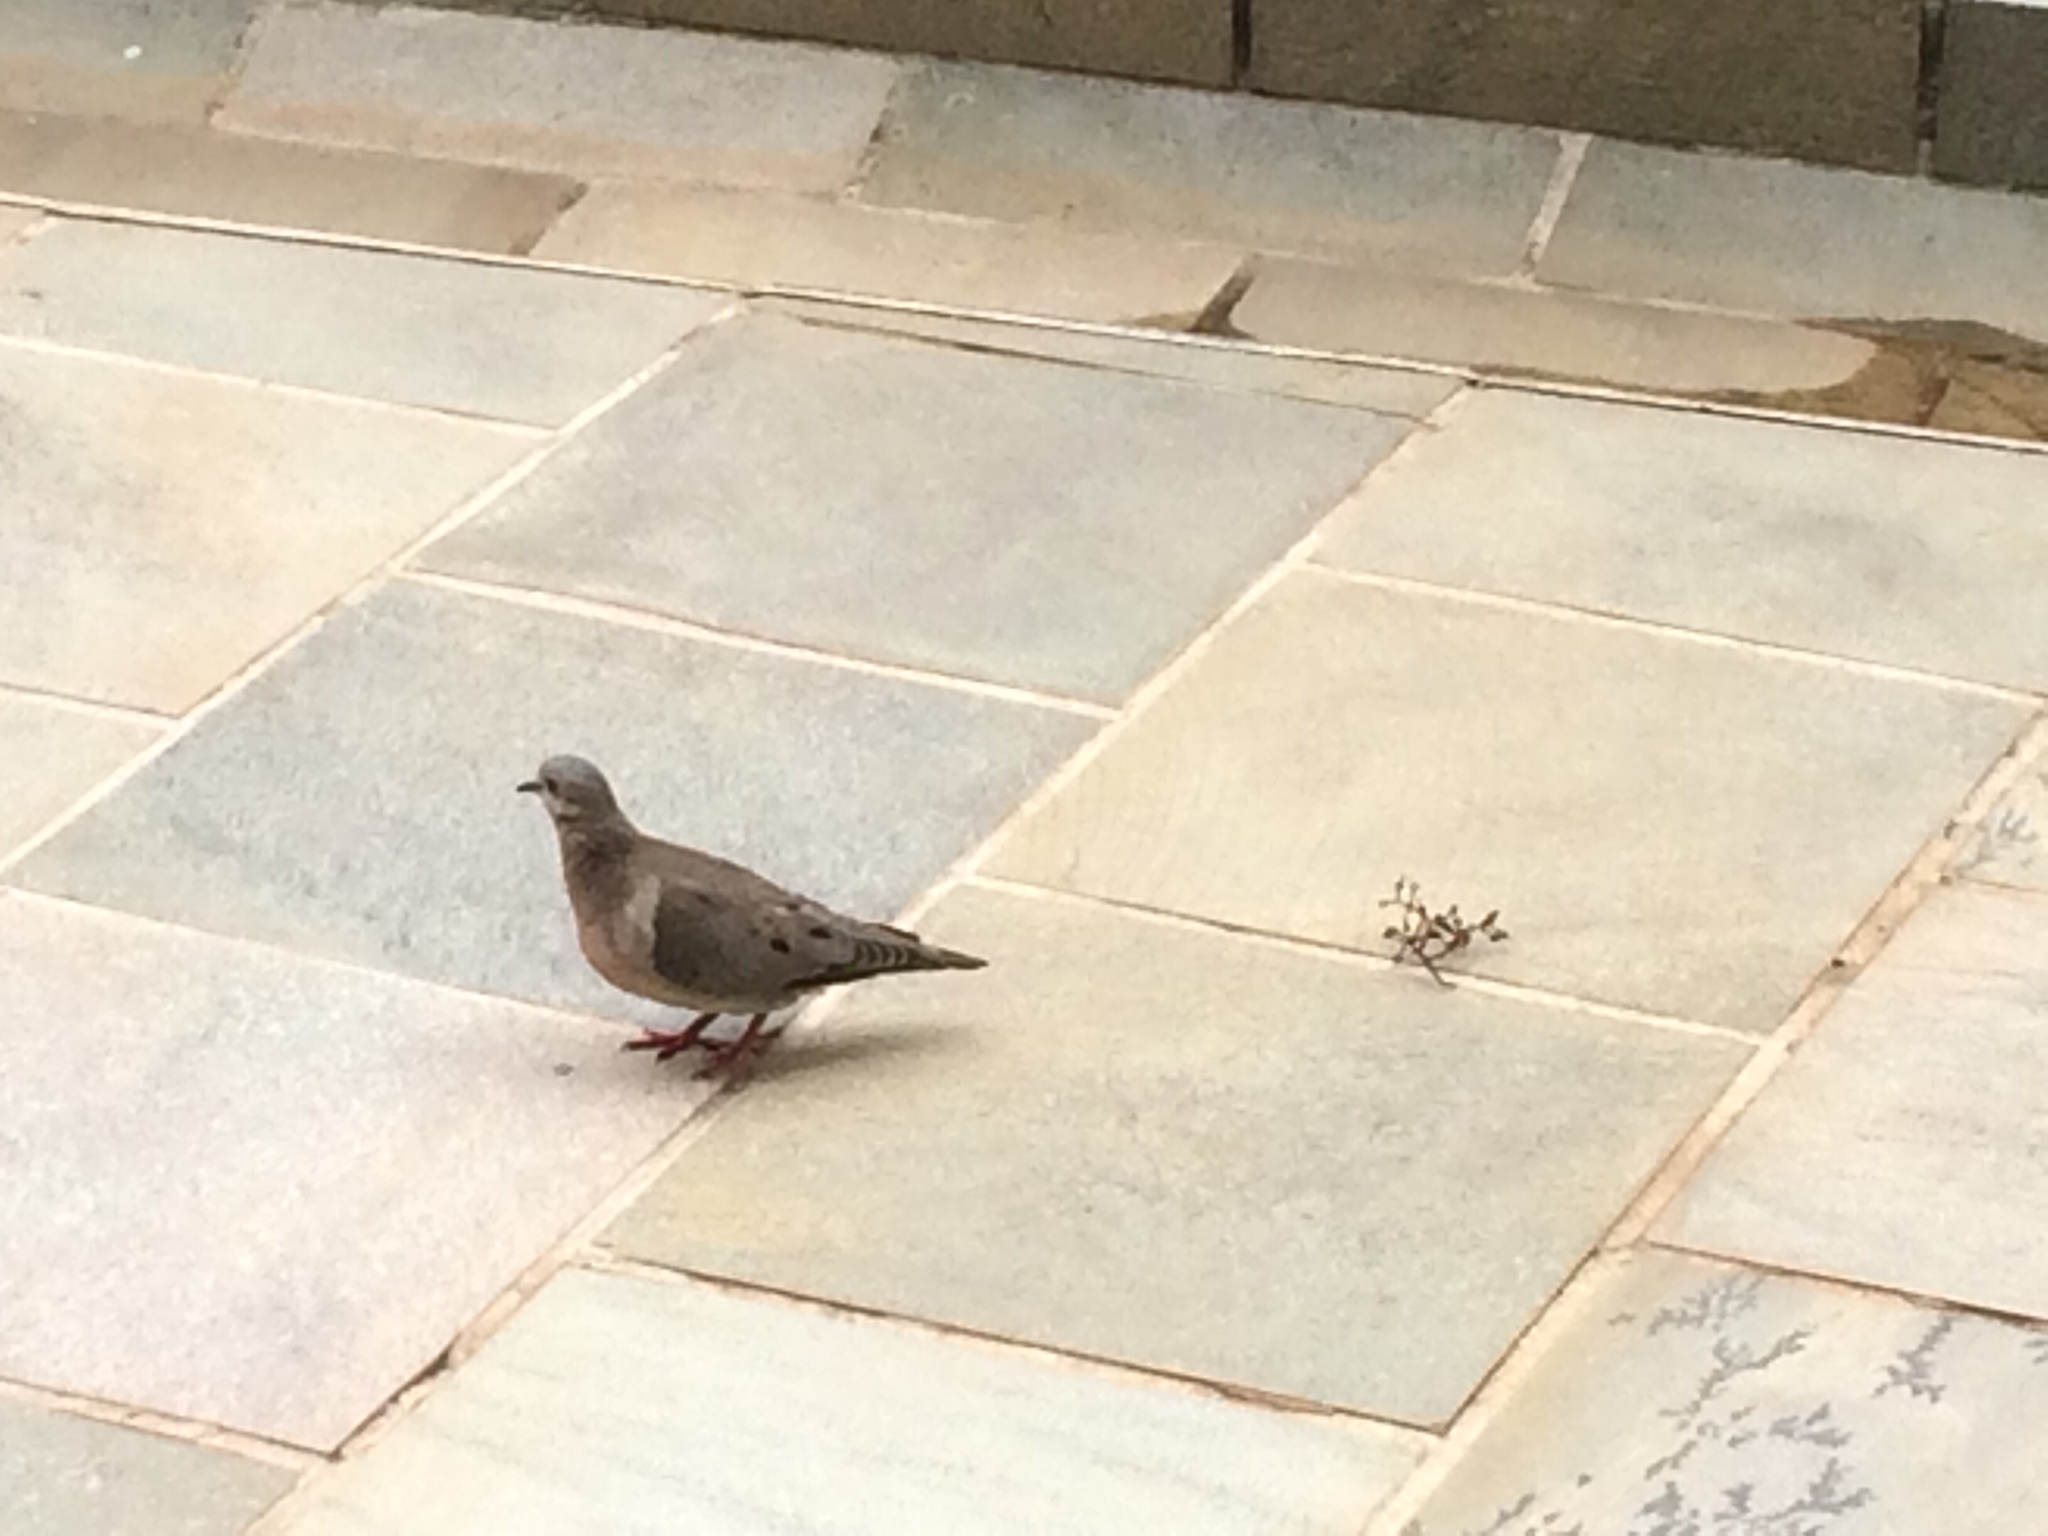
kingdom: Animalia
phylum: Chordata
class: Aves
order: Columbiformes
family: Columbidae
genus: Zenaida
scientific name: Zenaida auriculata
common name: Eared dove
